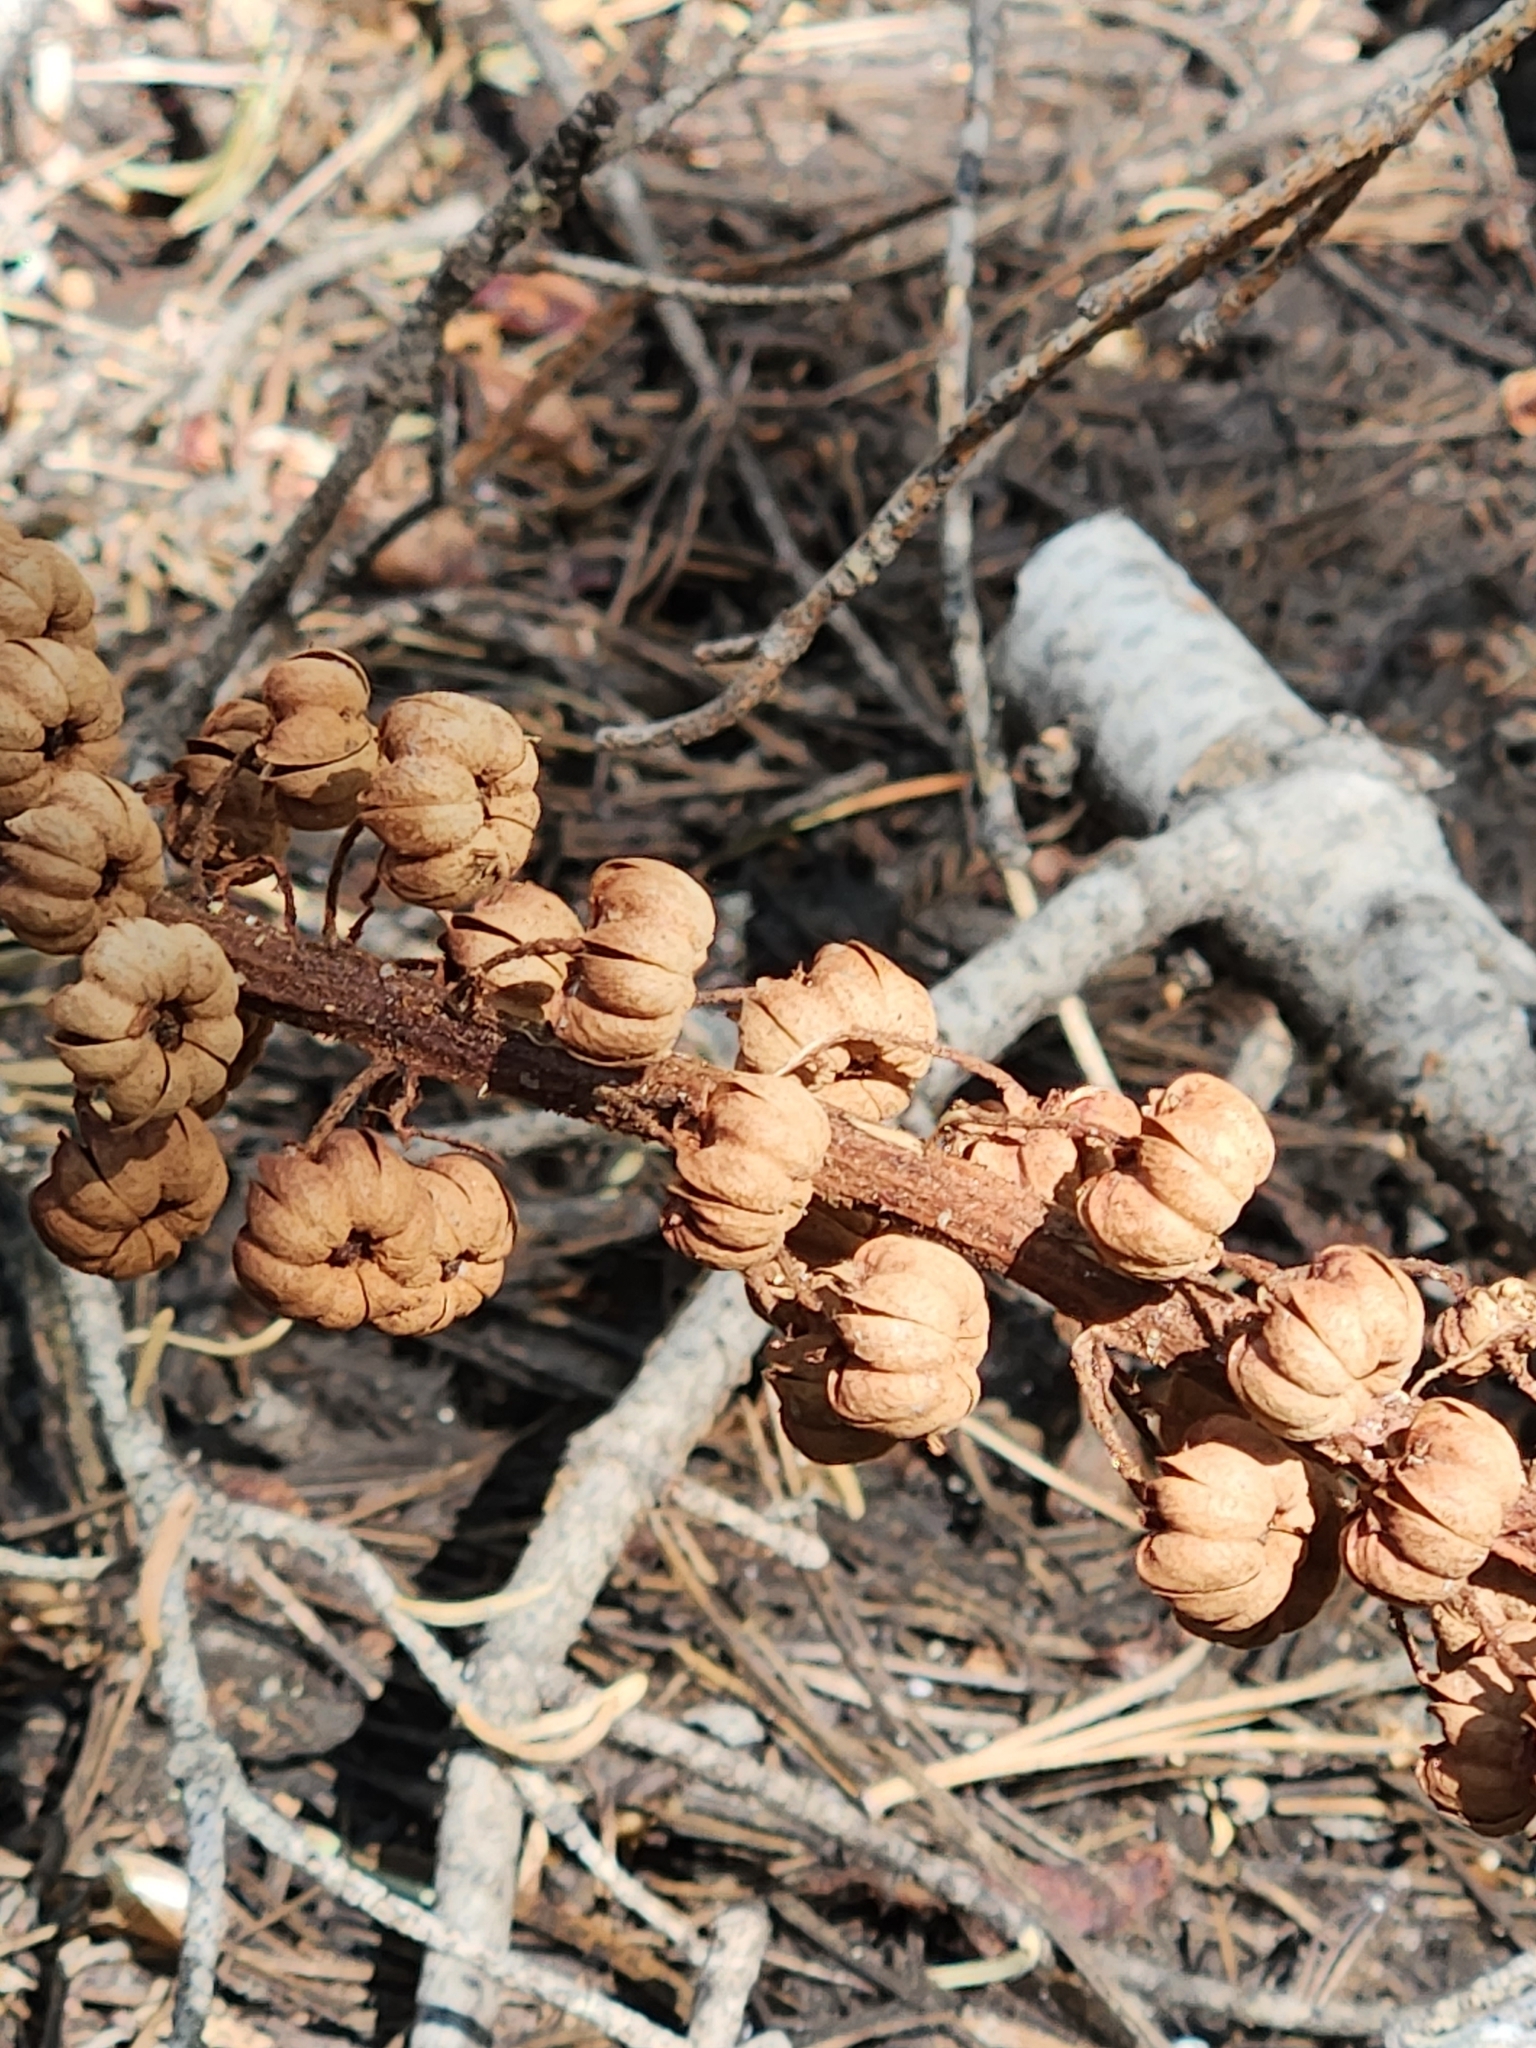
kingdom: Plantae
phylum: Tracheophyta
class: Magnoliopsida
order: Ericales
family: Ericaceae
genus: Pterospora
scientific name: Pterospora andromedea
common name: Giant bird's-nest
